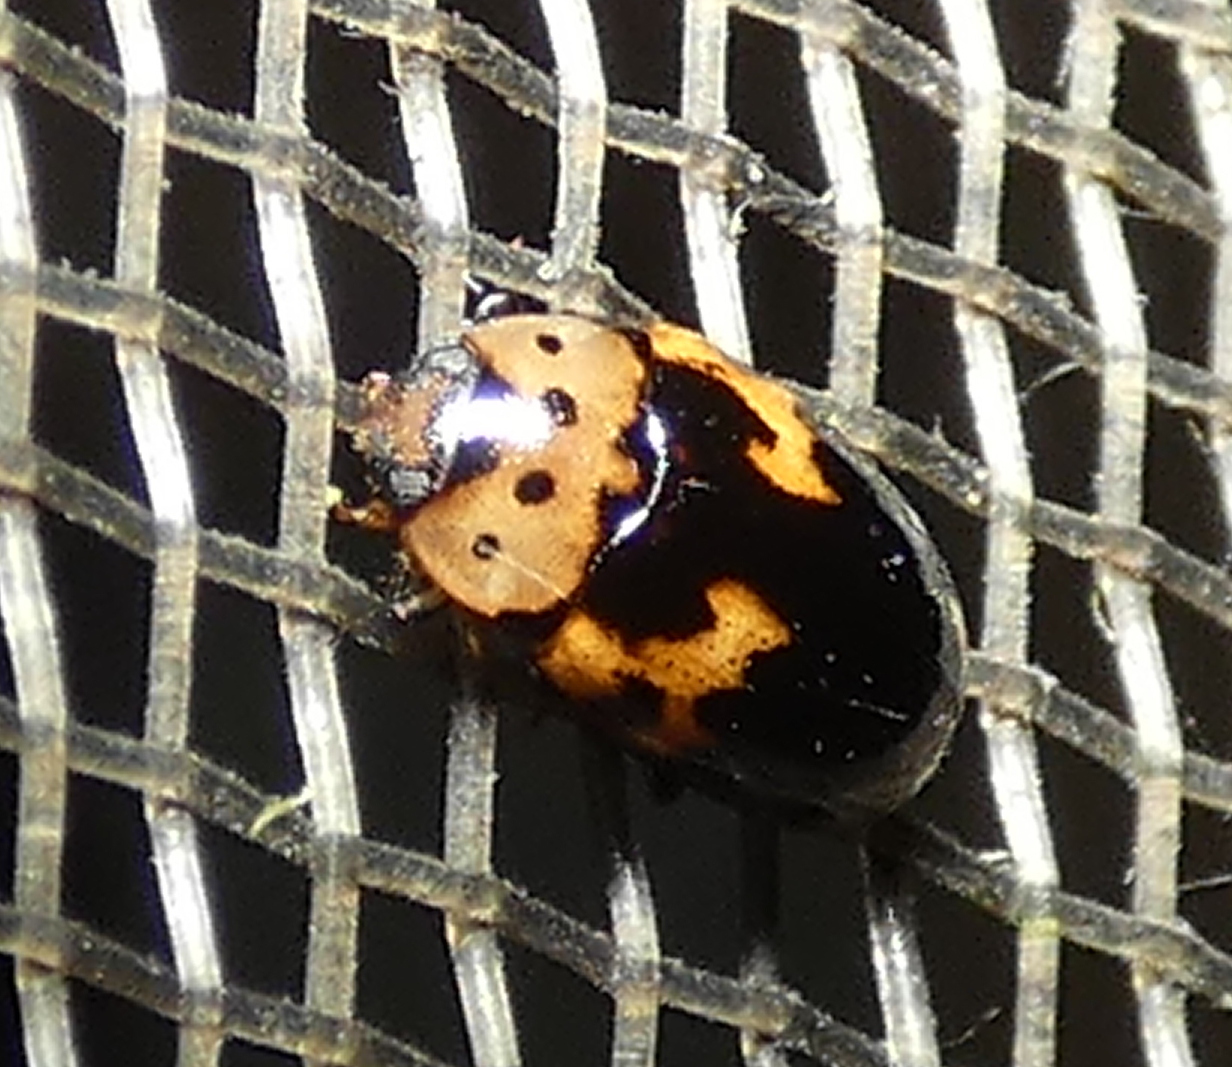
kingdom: Animalia
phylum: Arthropoda
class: Insecta
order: Coleoptera
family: Erotylidae
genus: Ischyrus
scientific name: Ischyrus
